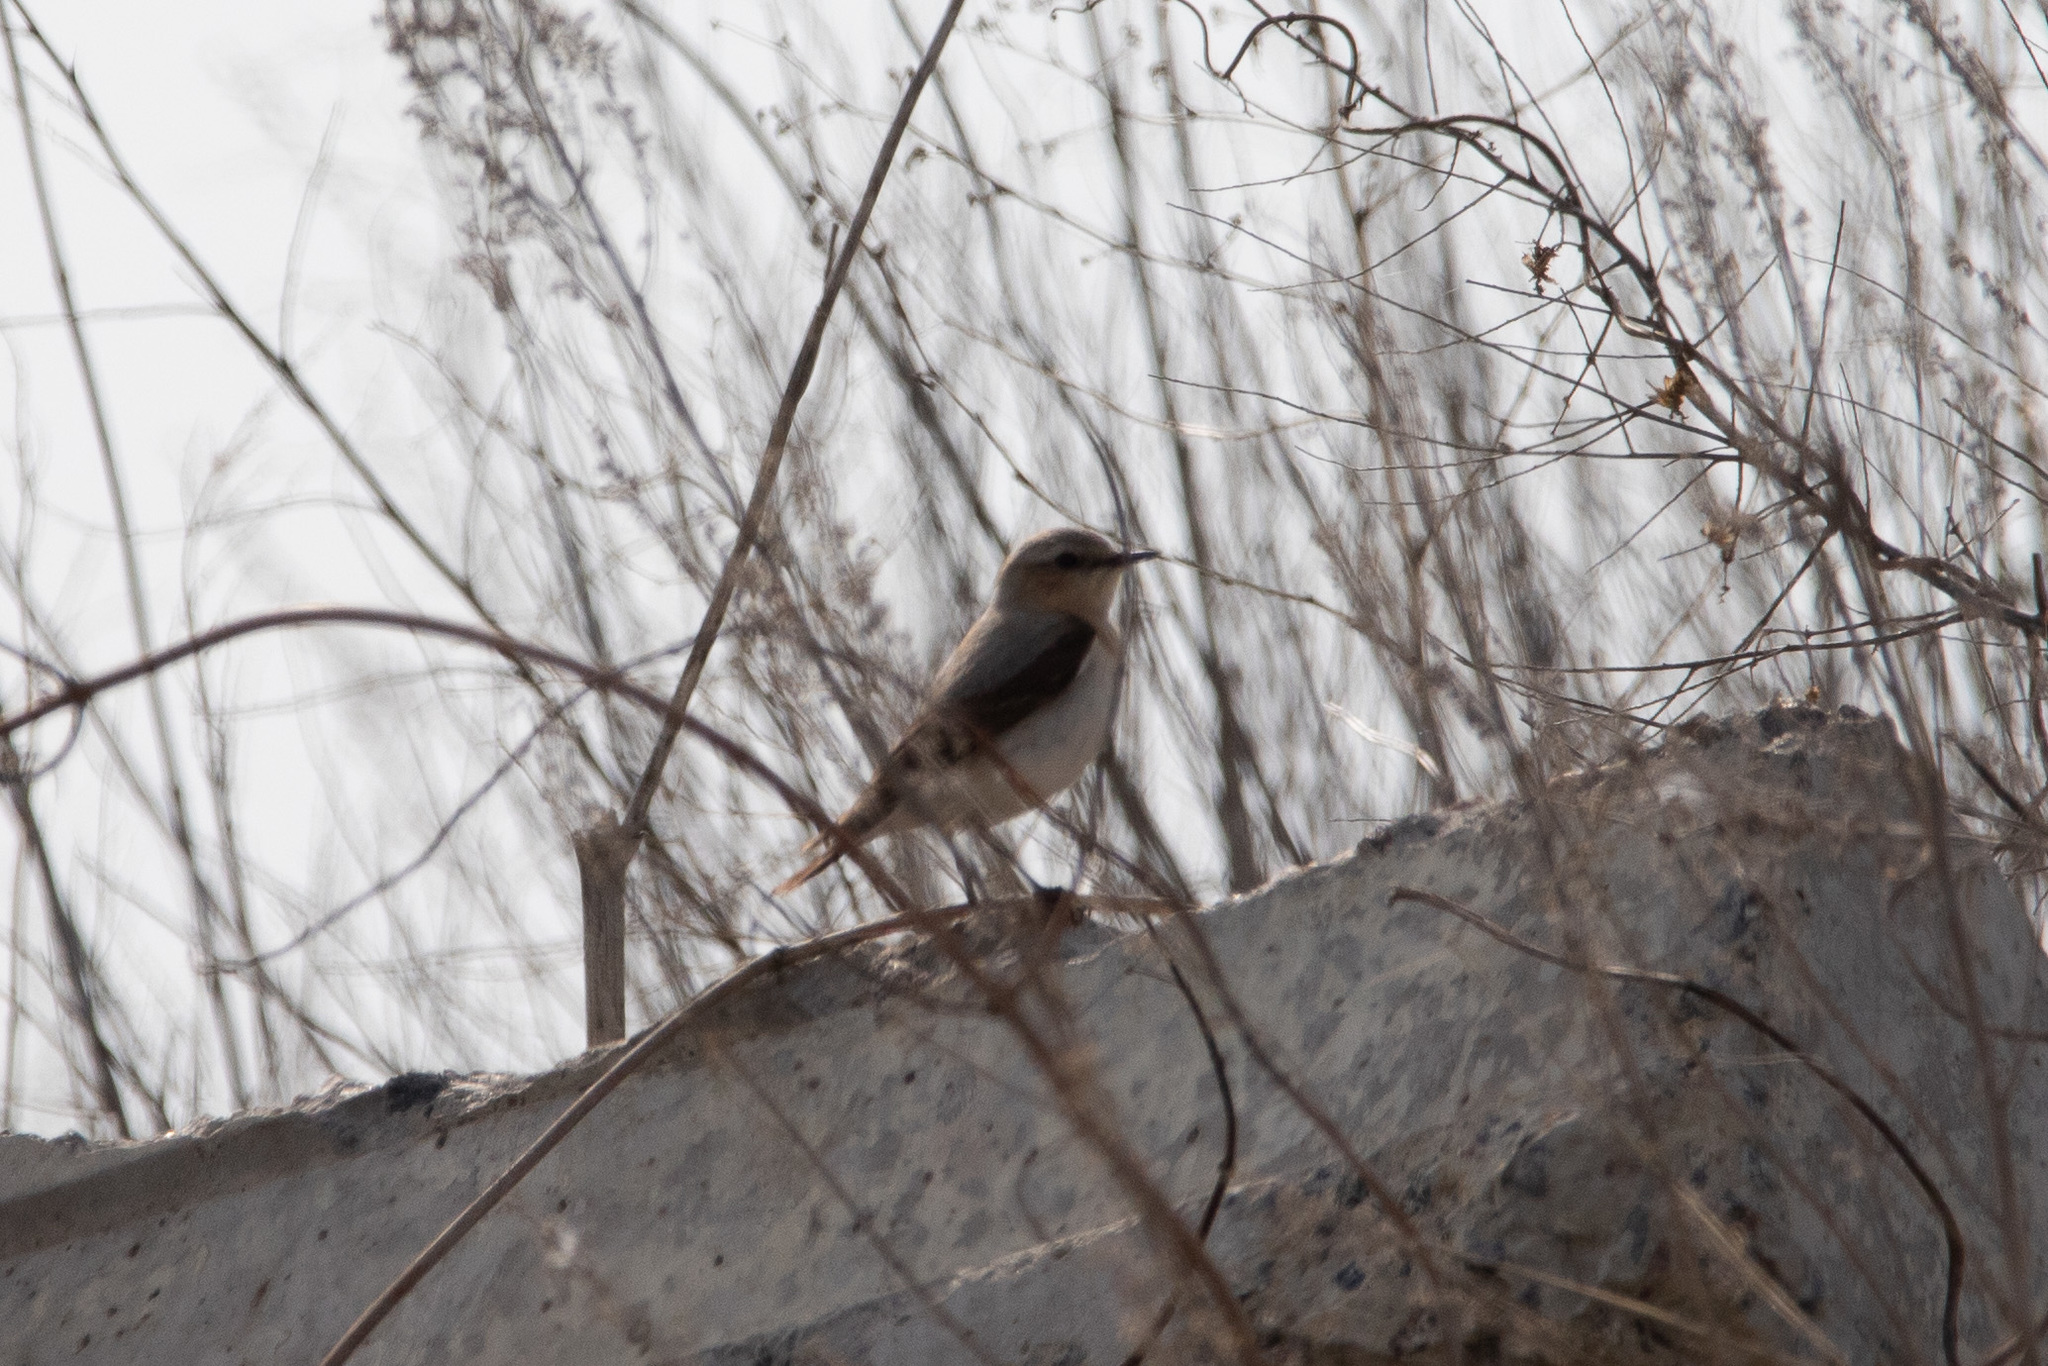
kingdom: Animalia
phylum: Chordata
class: Aves
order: Passeriformes
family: Muscicapidae
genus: Oenanthe
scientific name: Oenanthe oenanthe
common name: Northern wheatear
